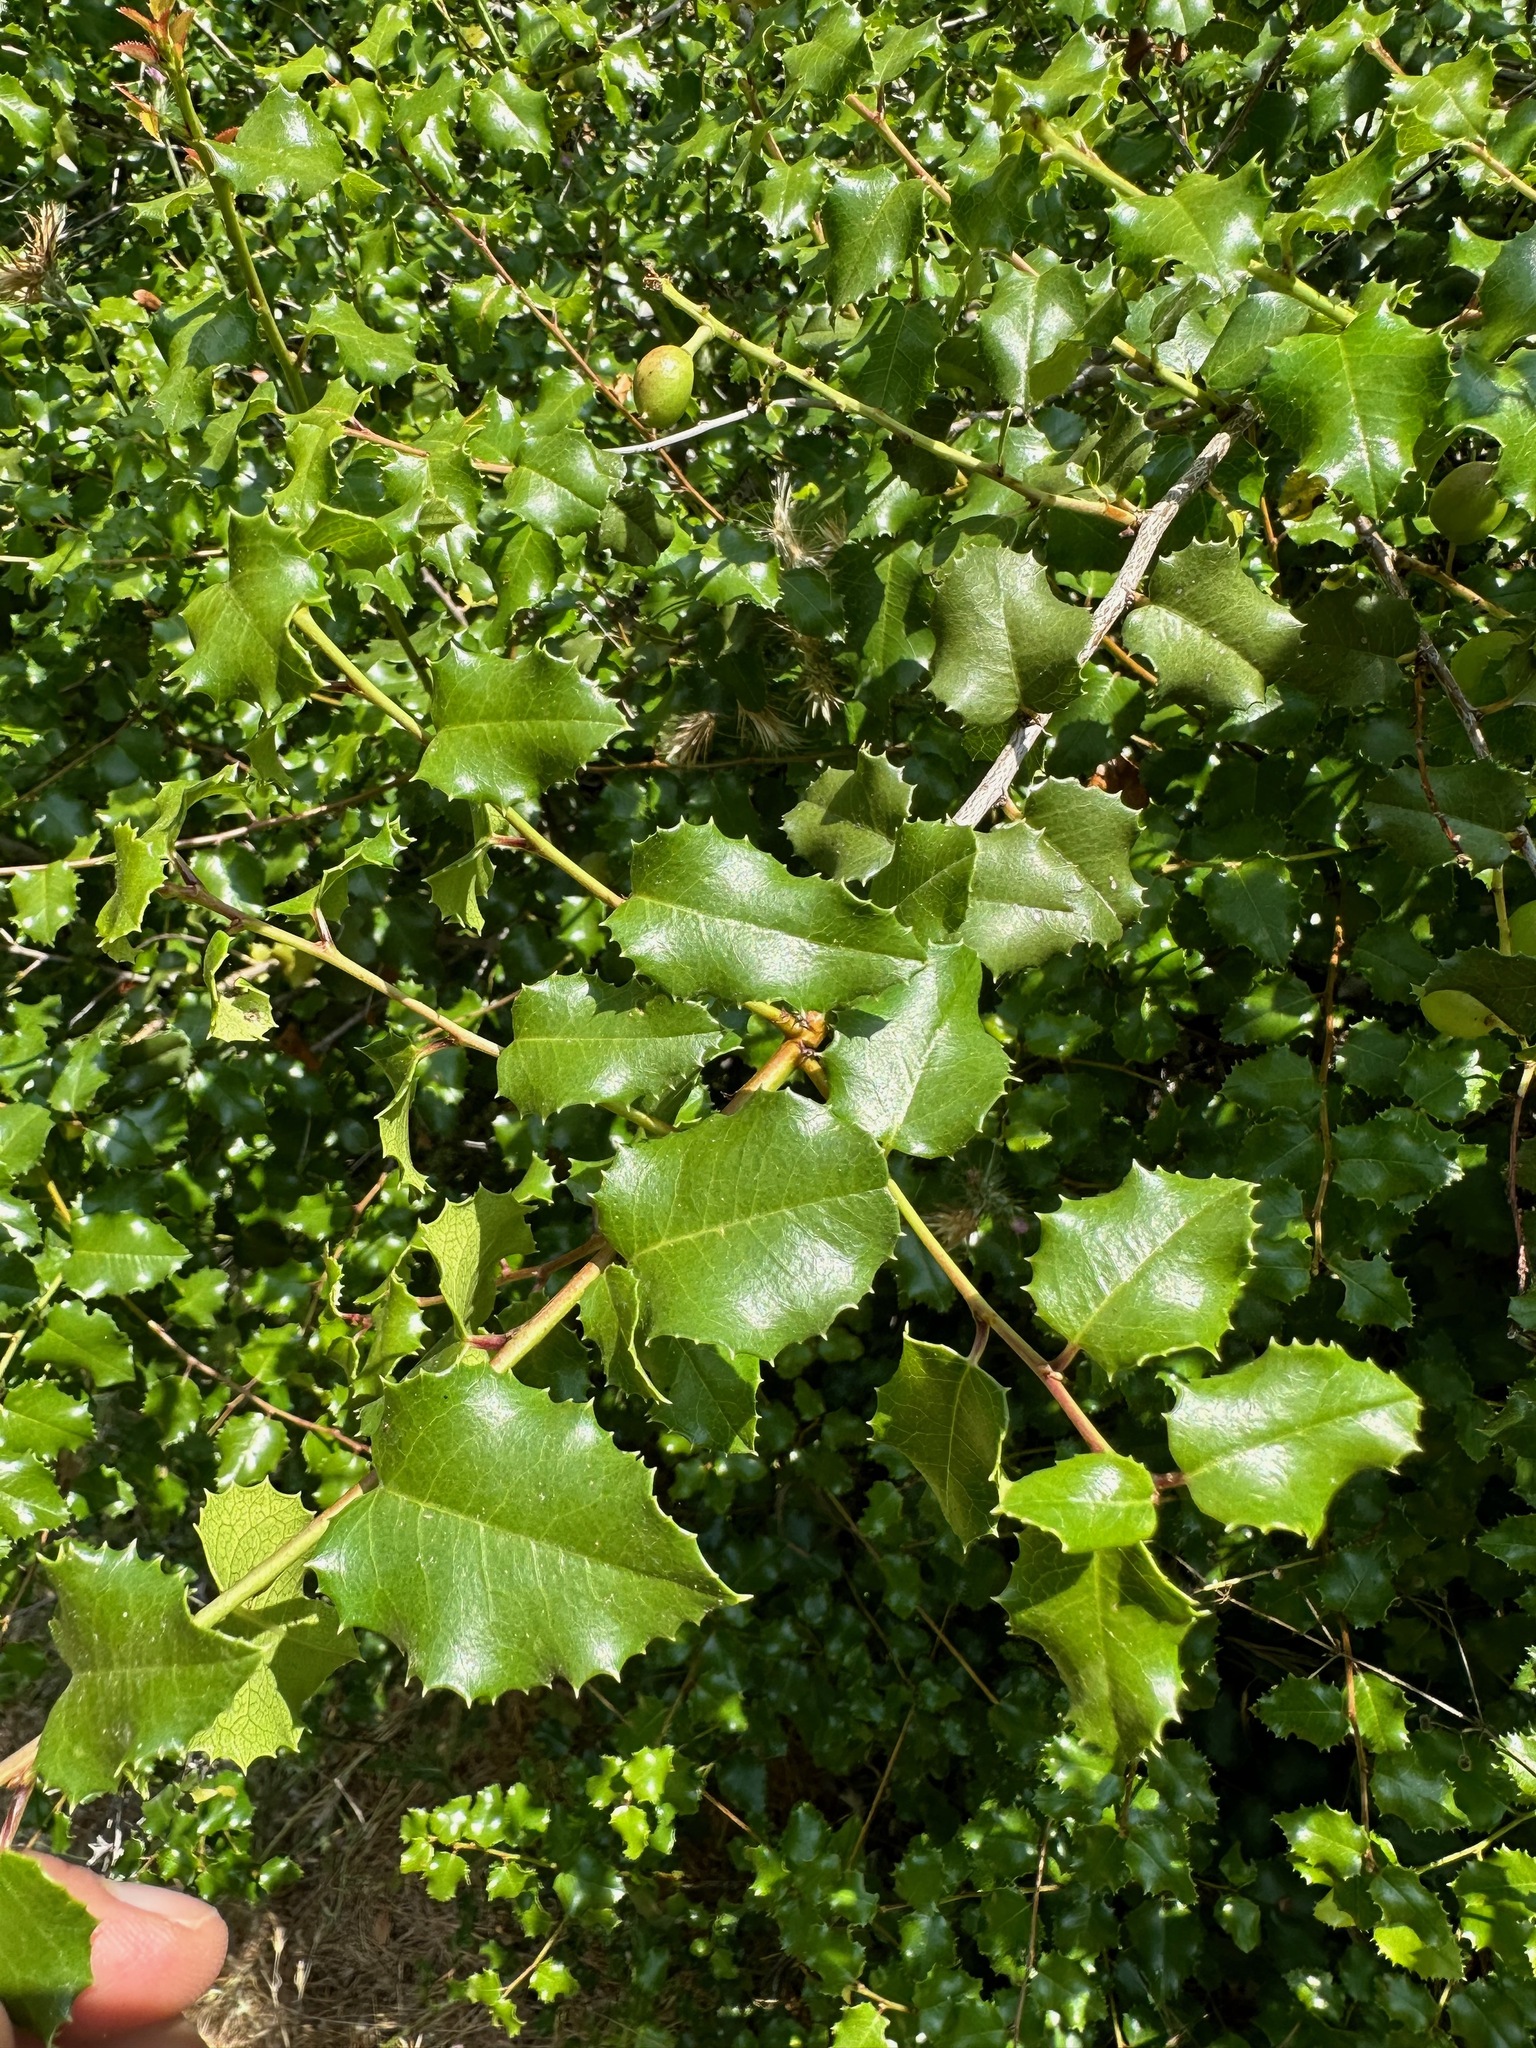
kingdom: Plantae
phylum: Tracheophyta
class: Magnoliopsida
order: Rosales
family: Rosaceae
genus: Prunus
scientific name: Prunus ilicifolia
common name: Hollyleaf cherry
